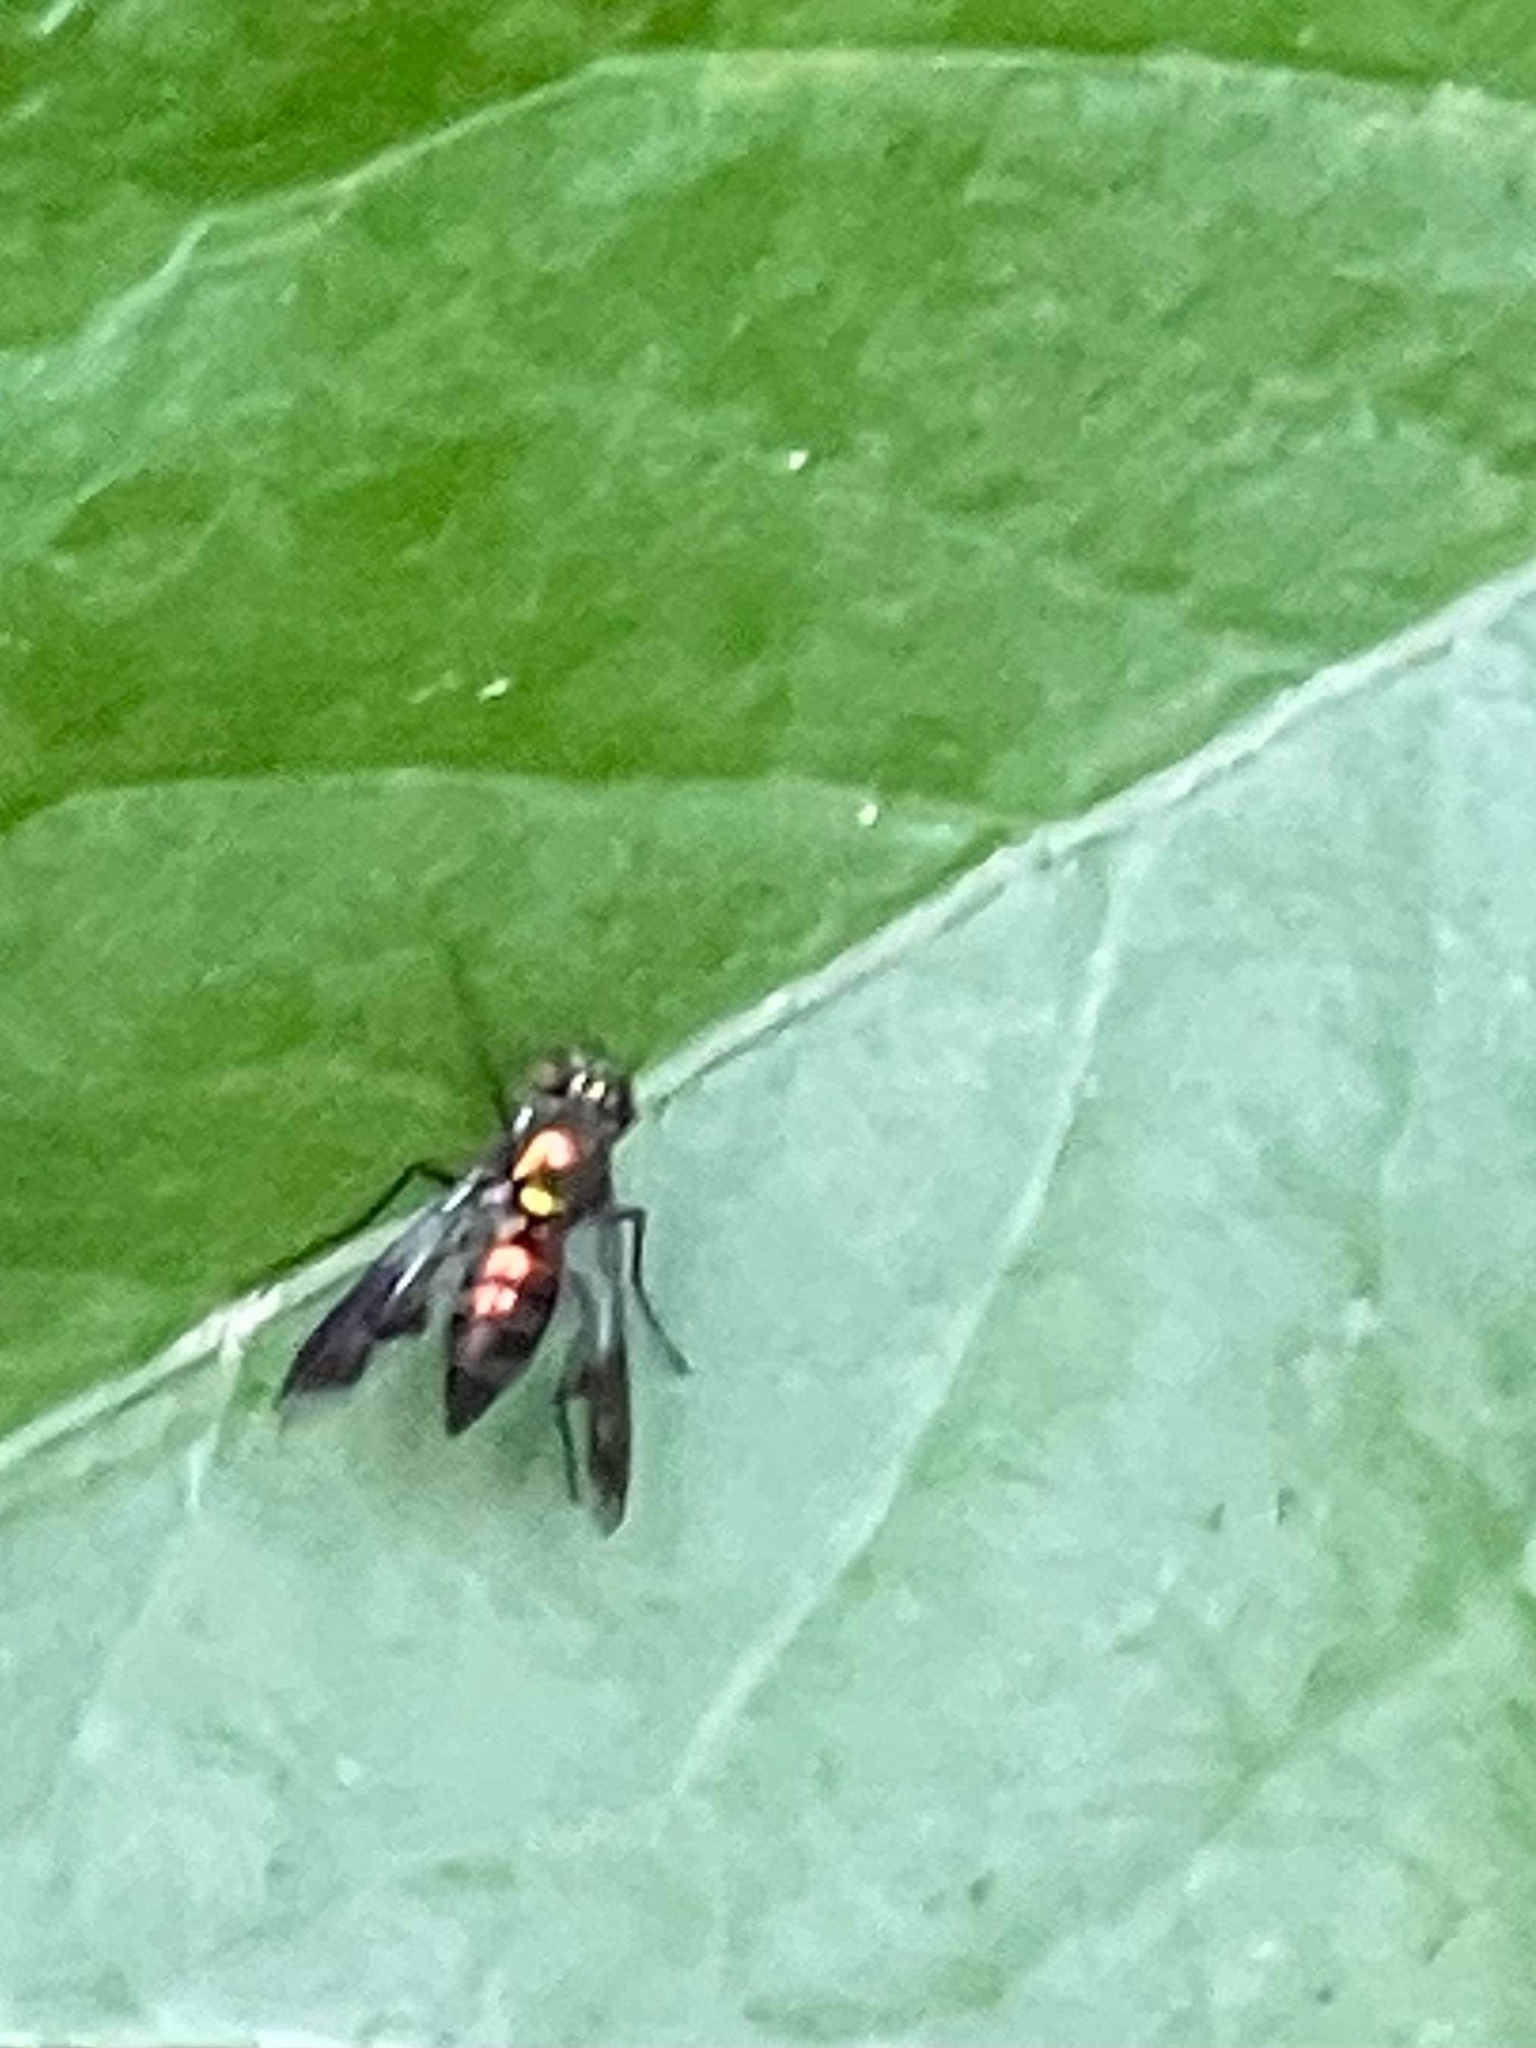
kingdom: Animalia
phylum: Arthropoda
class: Insecta
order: Diptera
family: Dolichopodidae
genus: Condylostylus
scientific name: Condylostylus patibulatus
